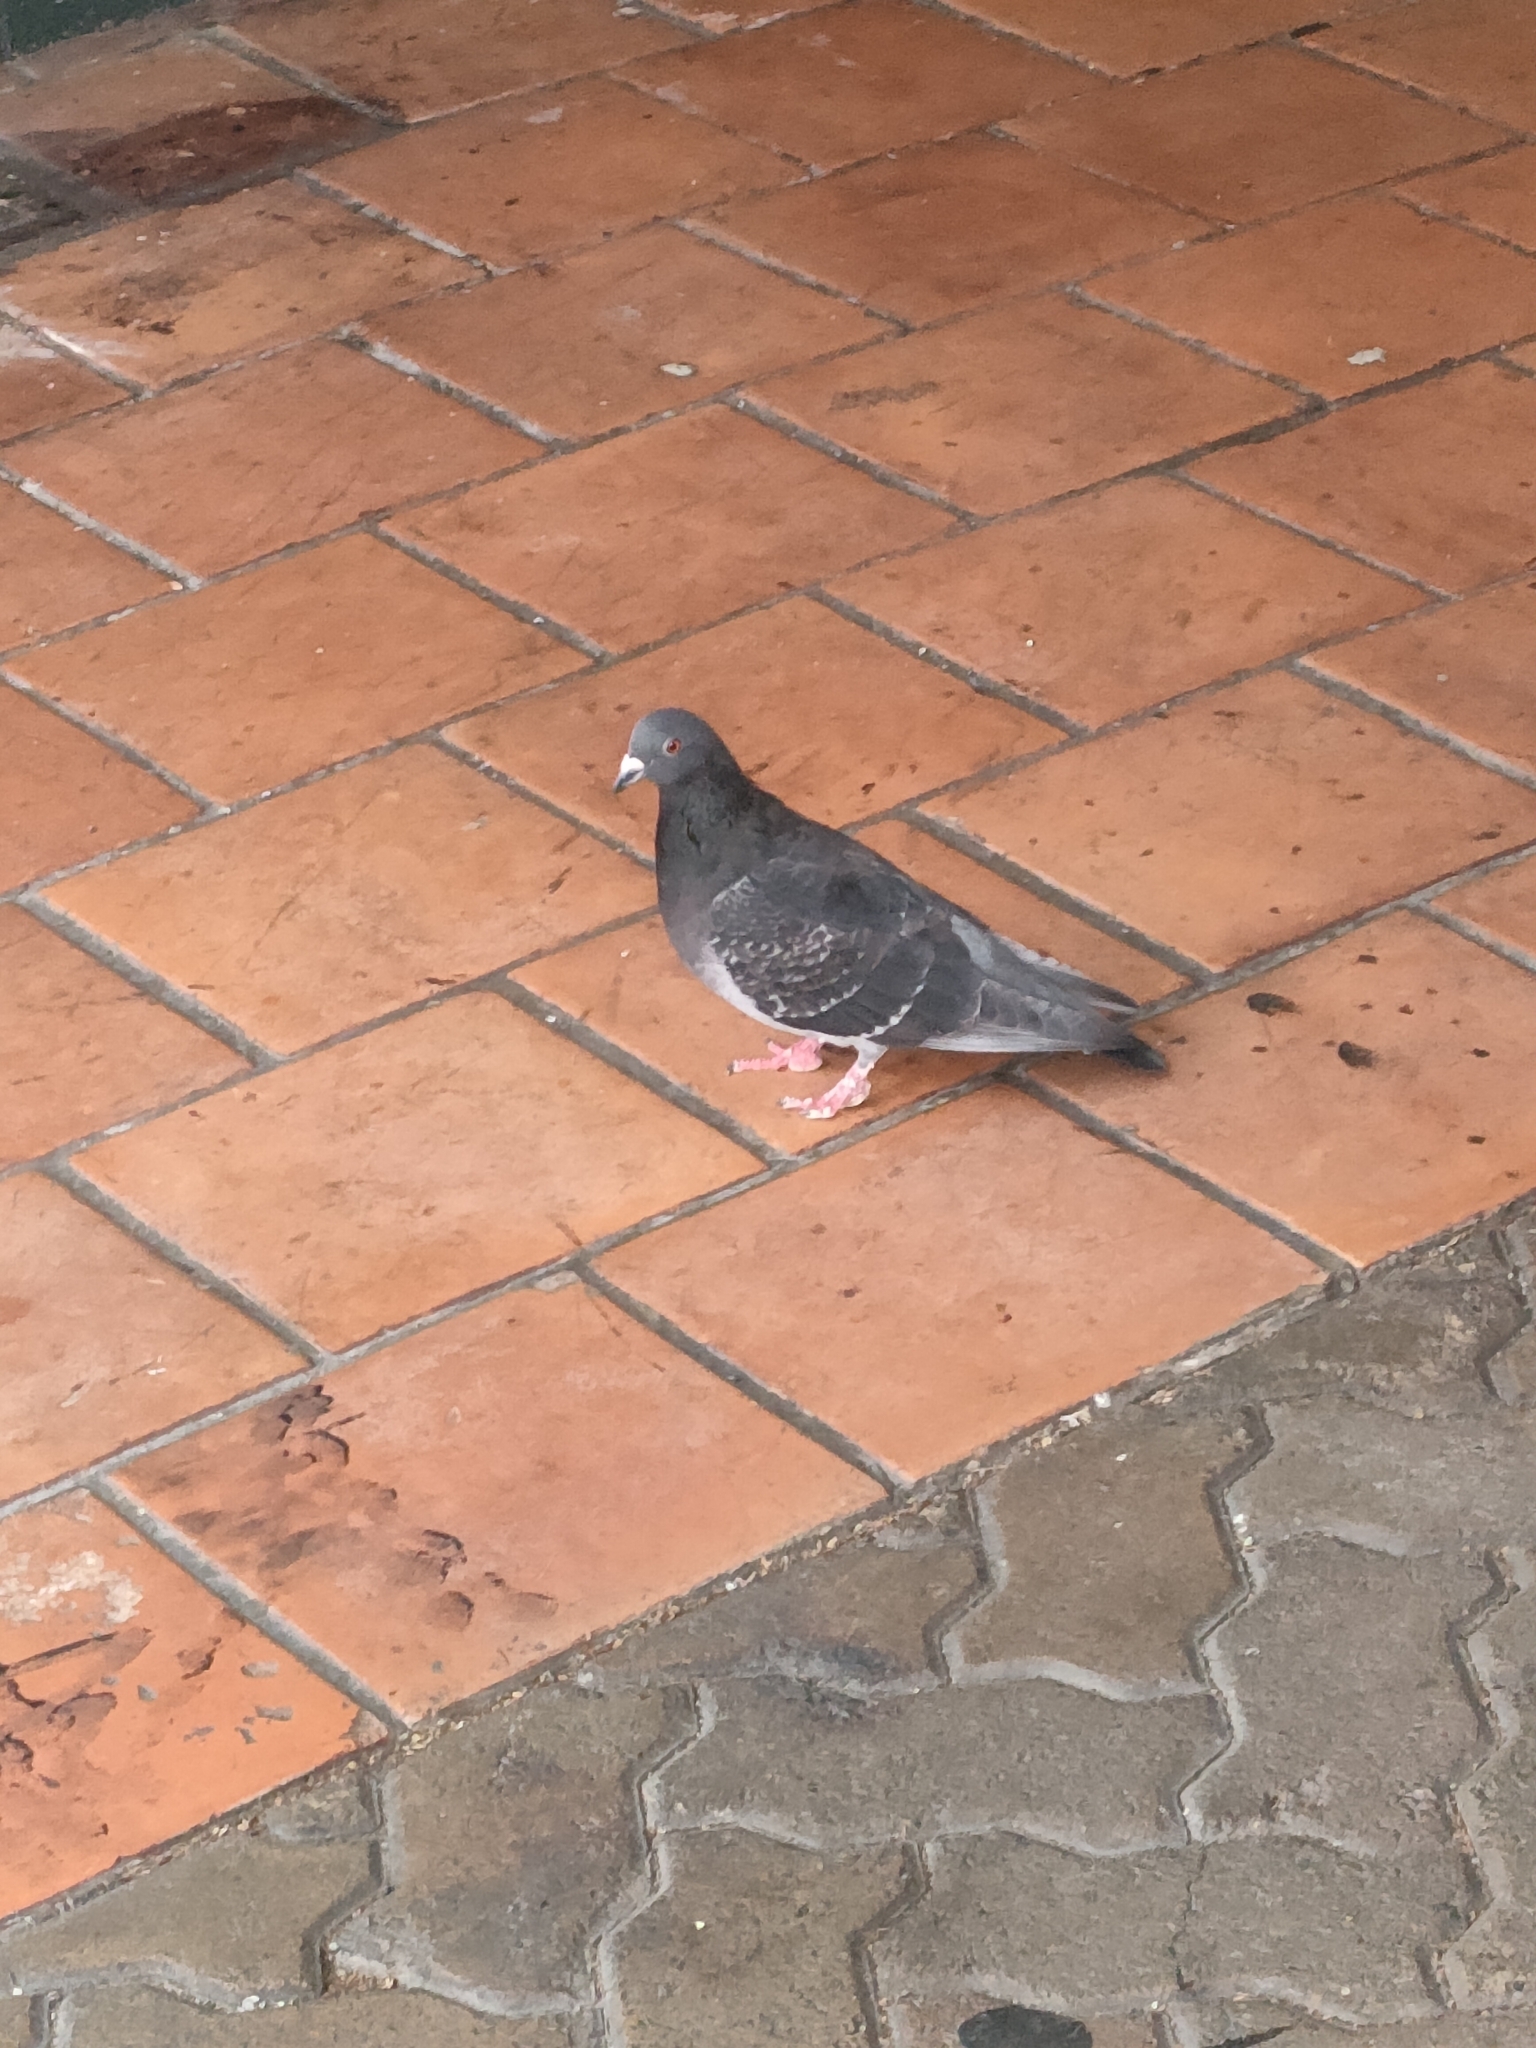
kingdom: Animalia
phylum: Chordata
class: Aves
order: Columbiformes
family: Columbidae
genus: Columba
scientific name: Columba livia
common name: Rock pigeon
